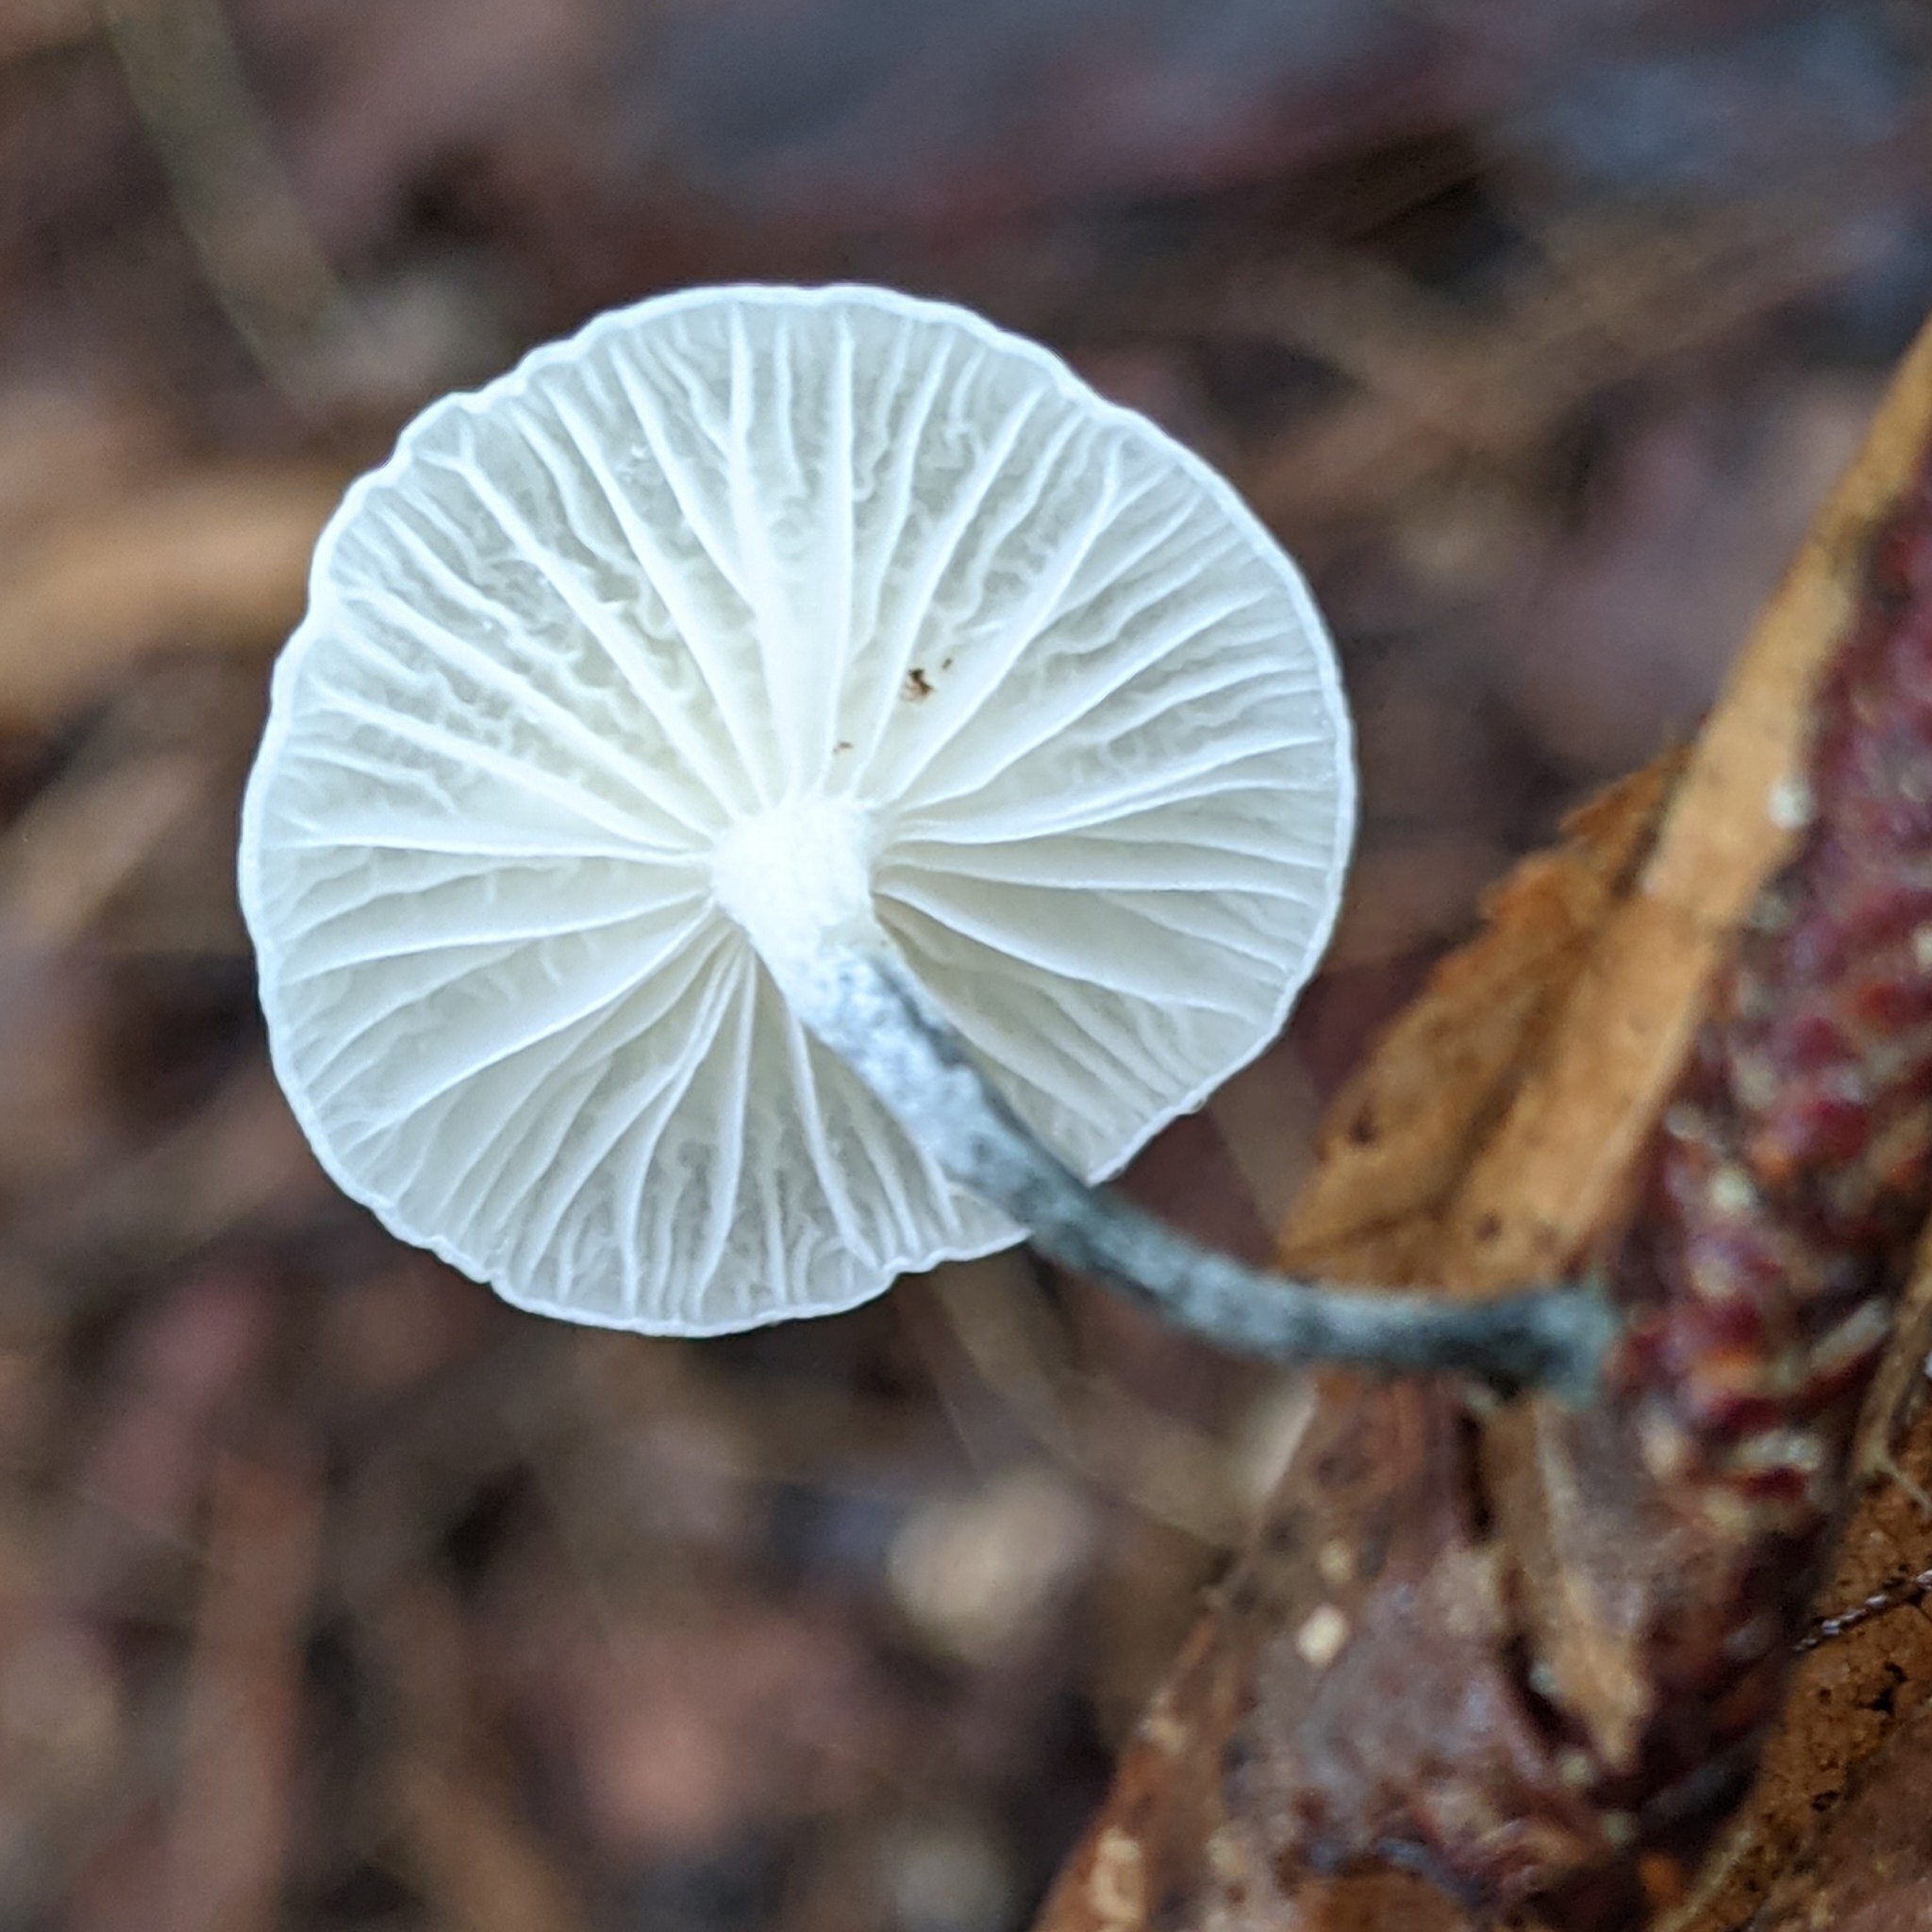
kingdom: Fungi
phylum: Basidiomycota
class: Agaricomycetes
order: Agaricales
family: Marasmiaceae
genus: Tetrapyrgos
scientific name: Tetrapyrgos nigripes
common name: Black-stalked marasmius
